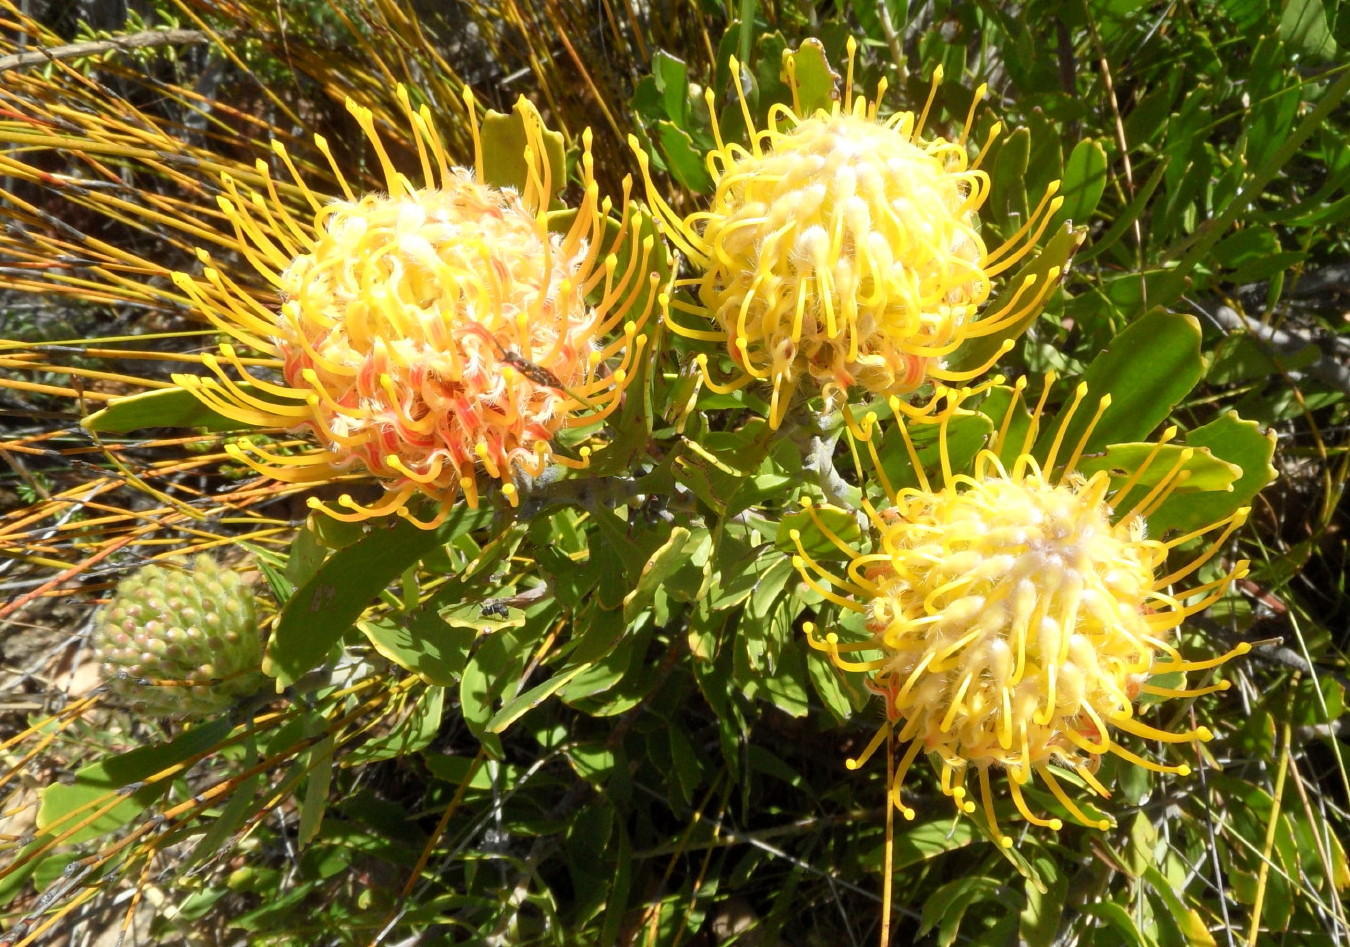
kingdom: Plantae
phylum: Tracheophyta
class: Magnoliopsida
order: Proteales
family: Proteaceae
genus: Leucospermum
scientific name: Leucospermum cuneiforme
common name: Common pincushion
